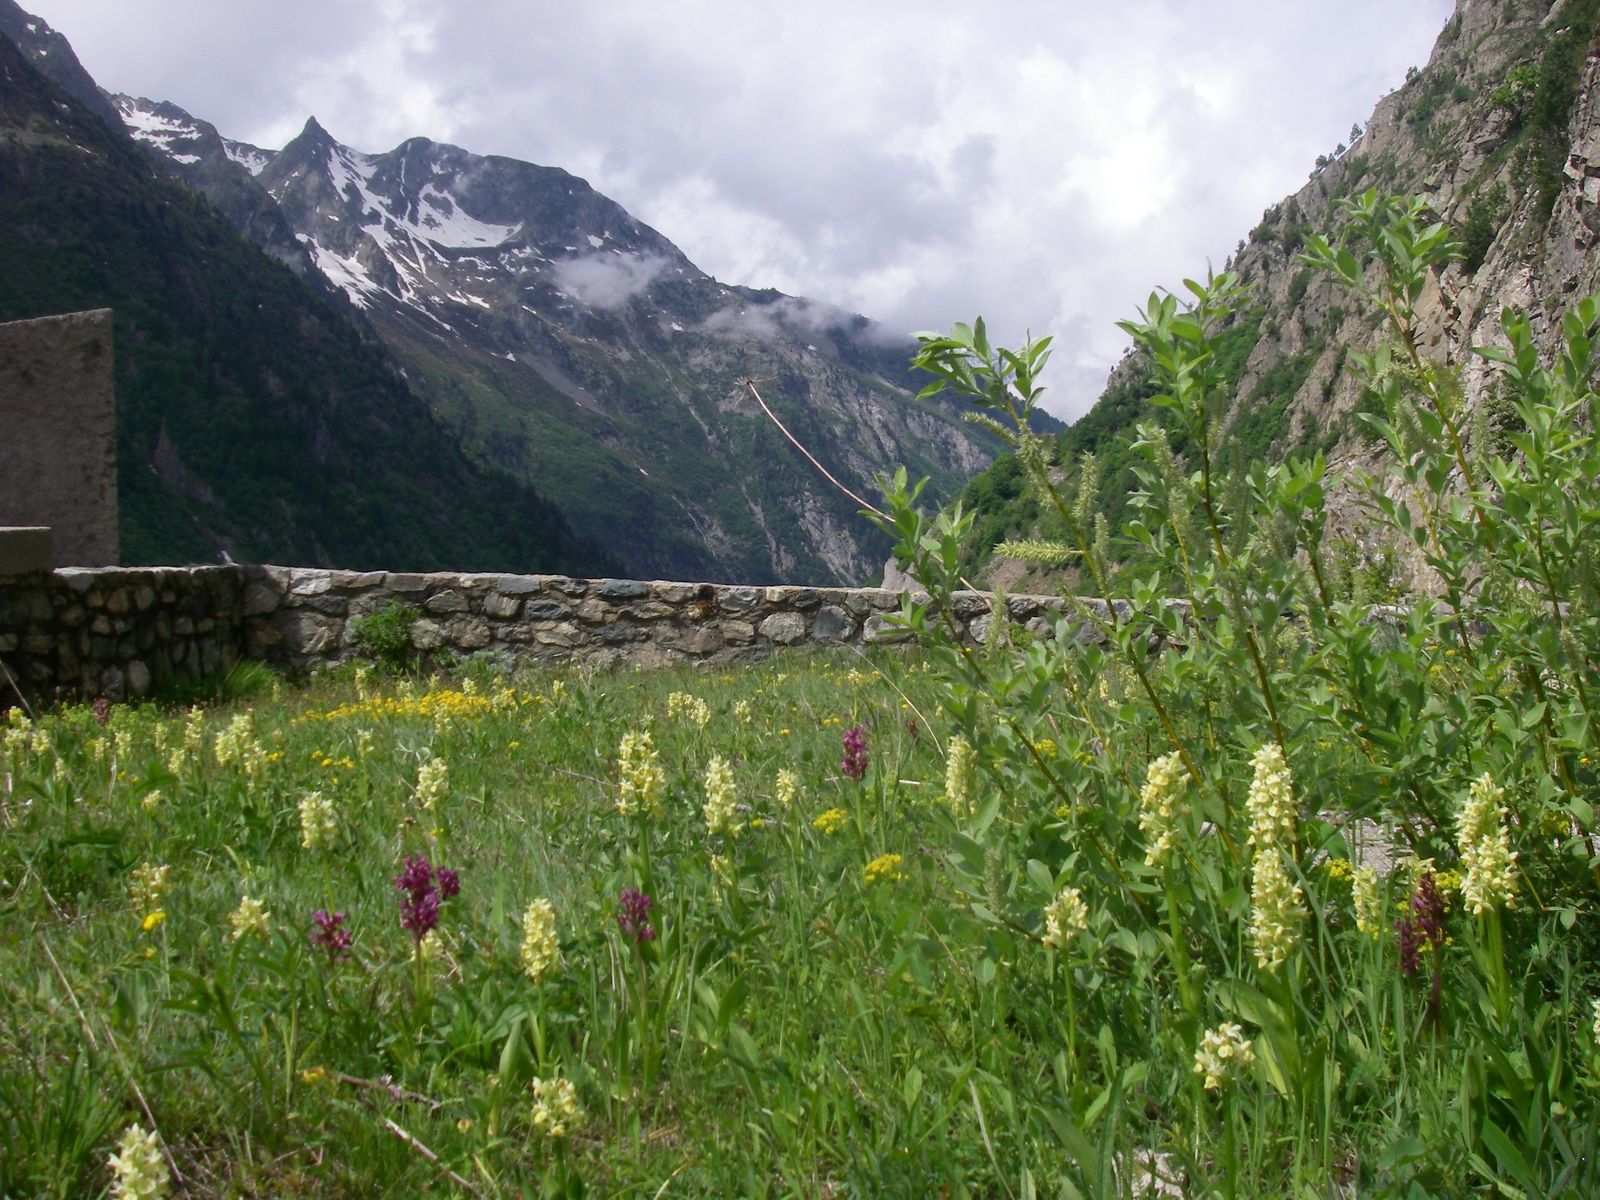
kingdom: Plantae
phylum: Tracheophyta
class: Liliopsida
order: Asparagales
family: Orchidaceae
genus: Dactylorhiza
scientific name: Dactylorhiza sambucina
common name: Elder-flowered orchid
